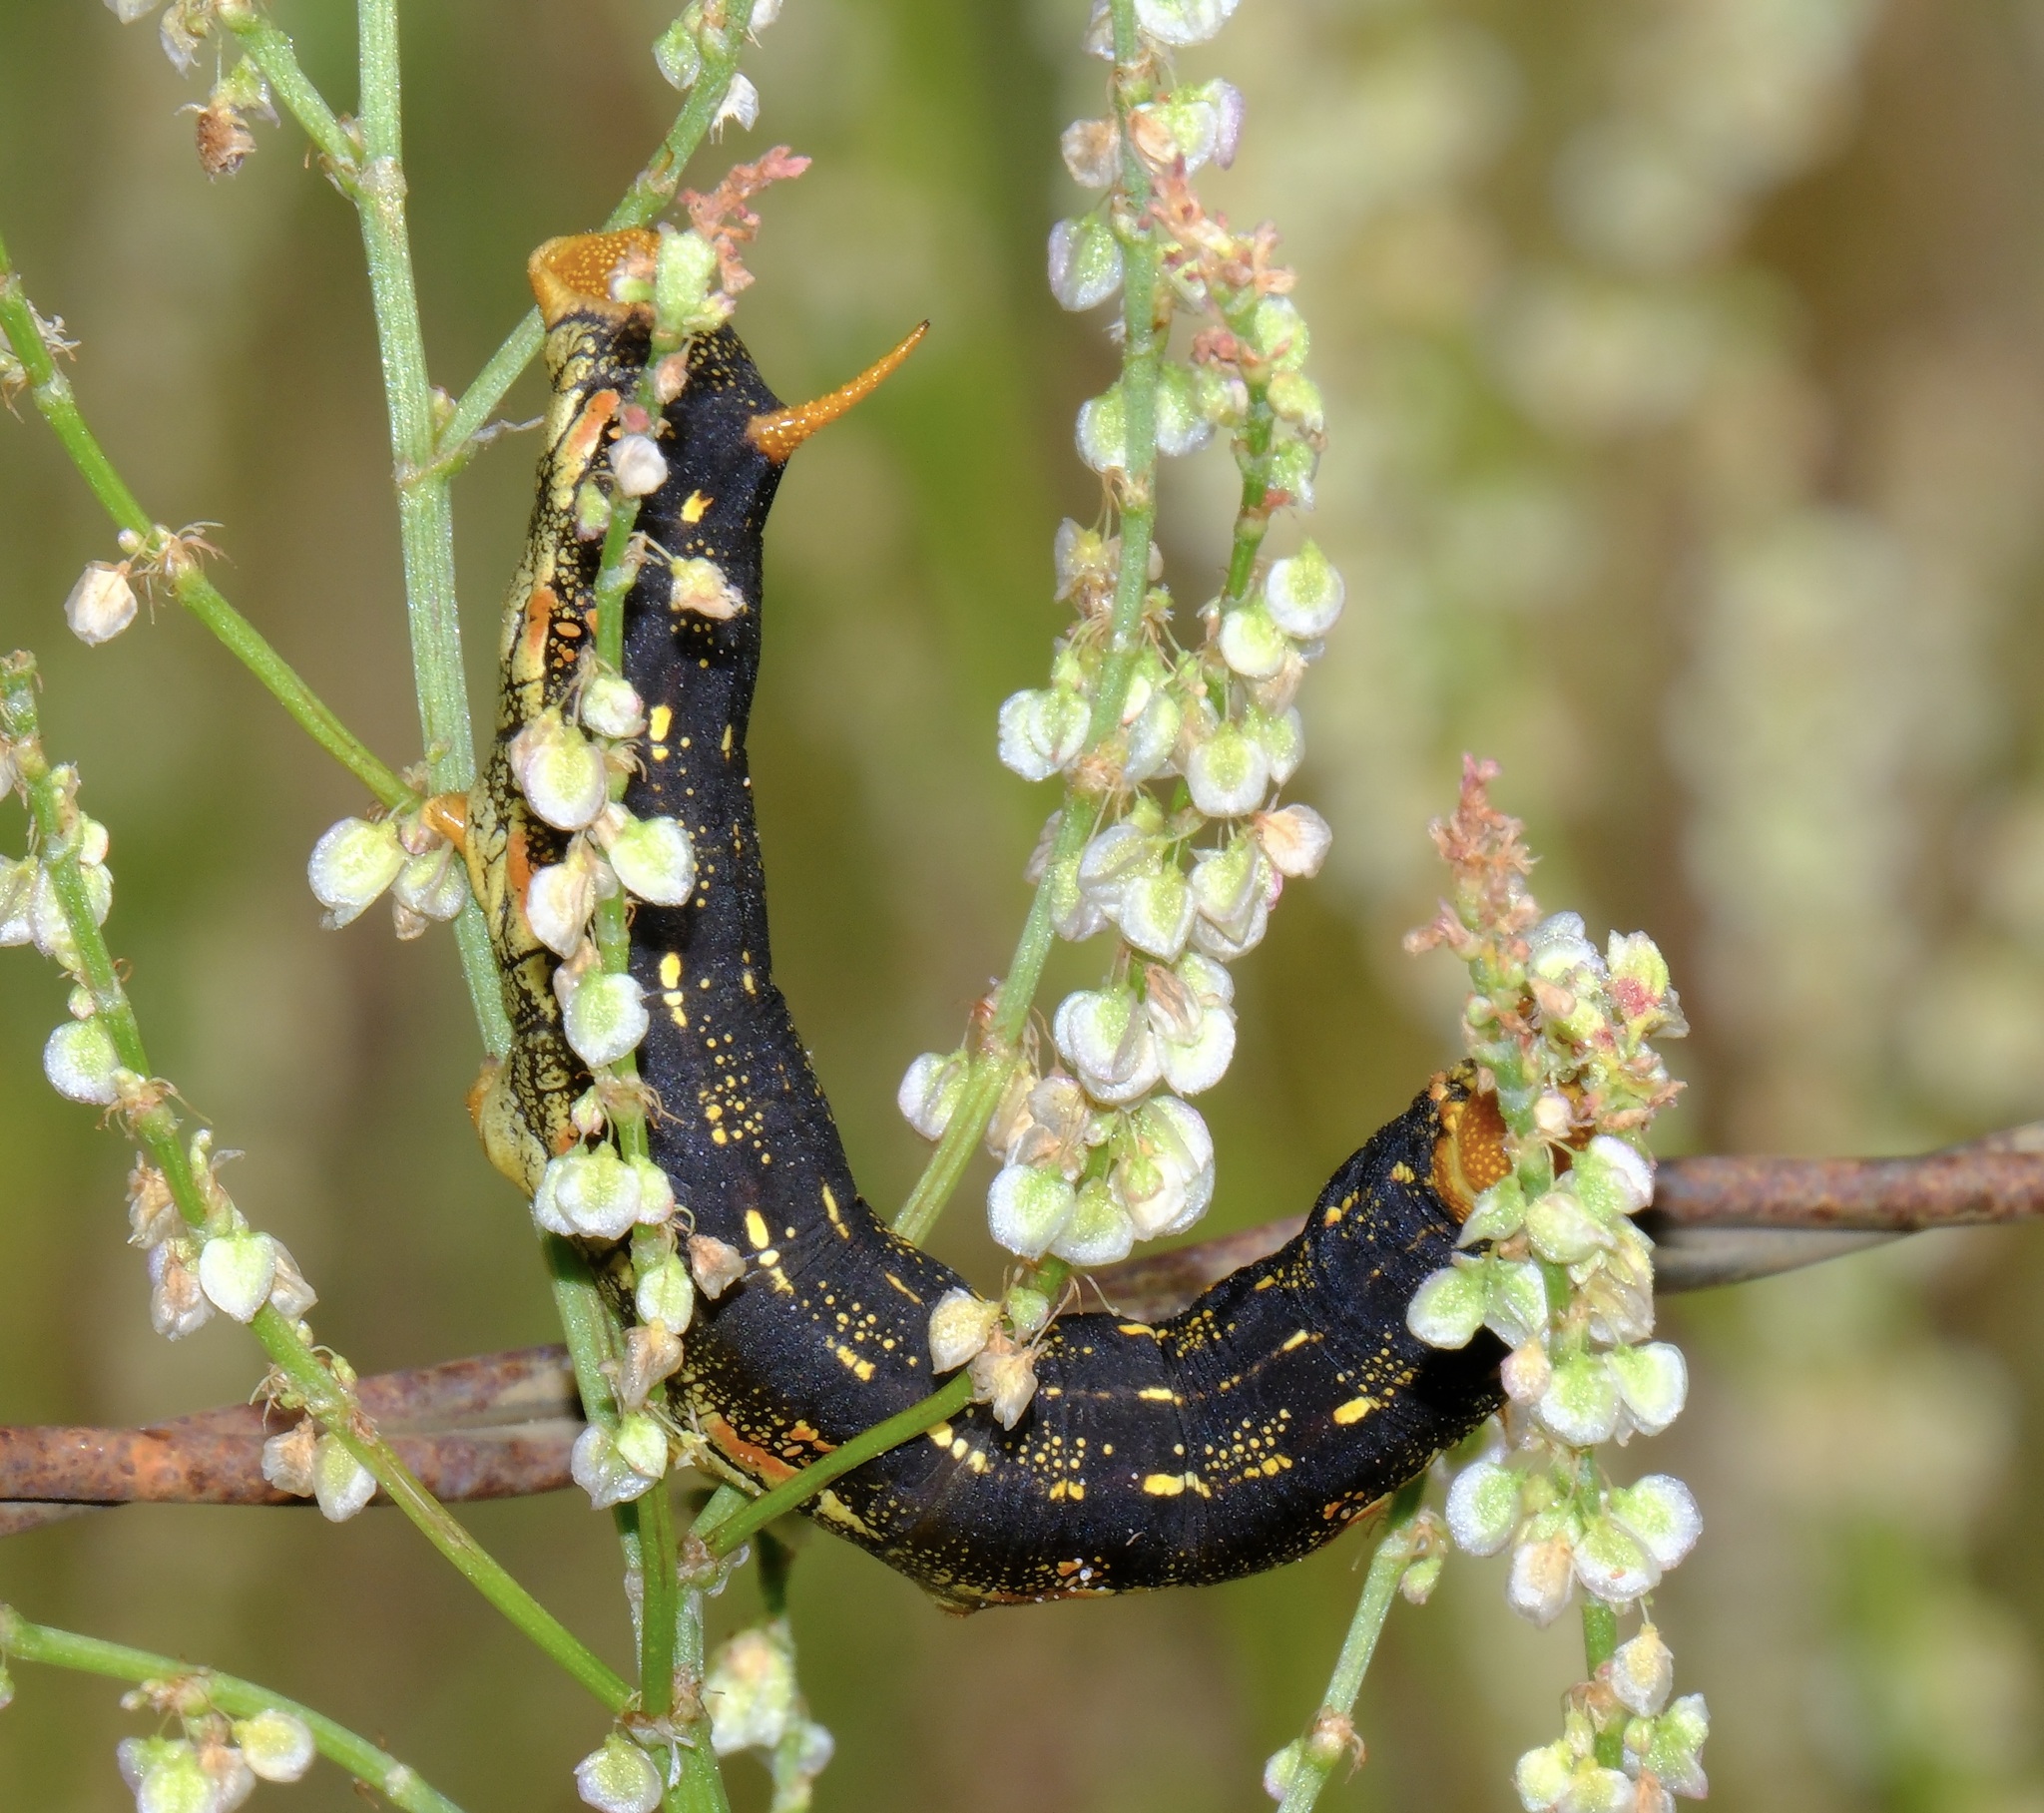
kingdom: Animalia
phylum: Arthropoda
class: Insecta
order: Lepidoptera
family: Sphingidae
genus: Hyles
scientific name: Hyles lineata
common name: White-lined sphinx
